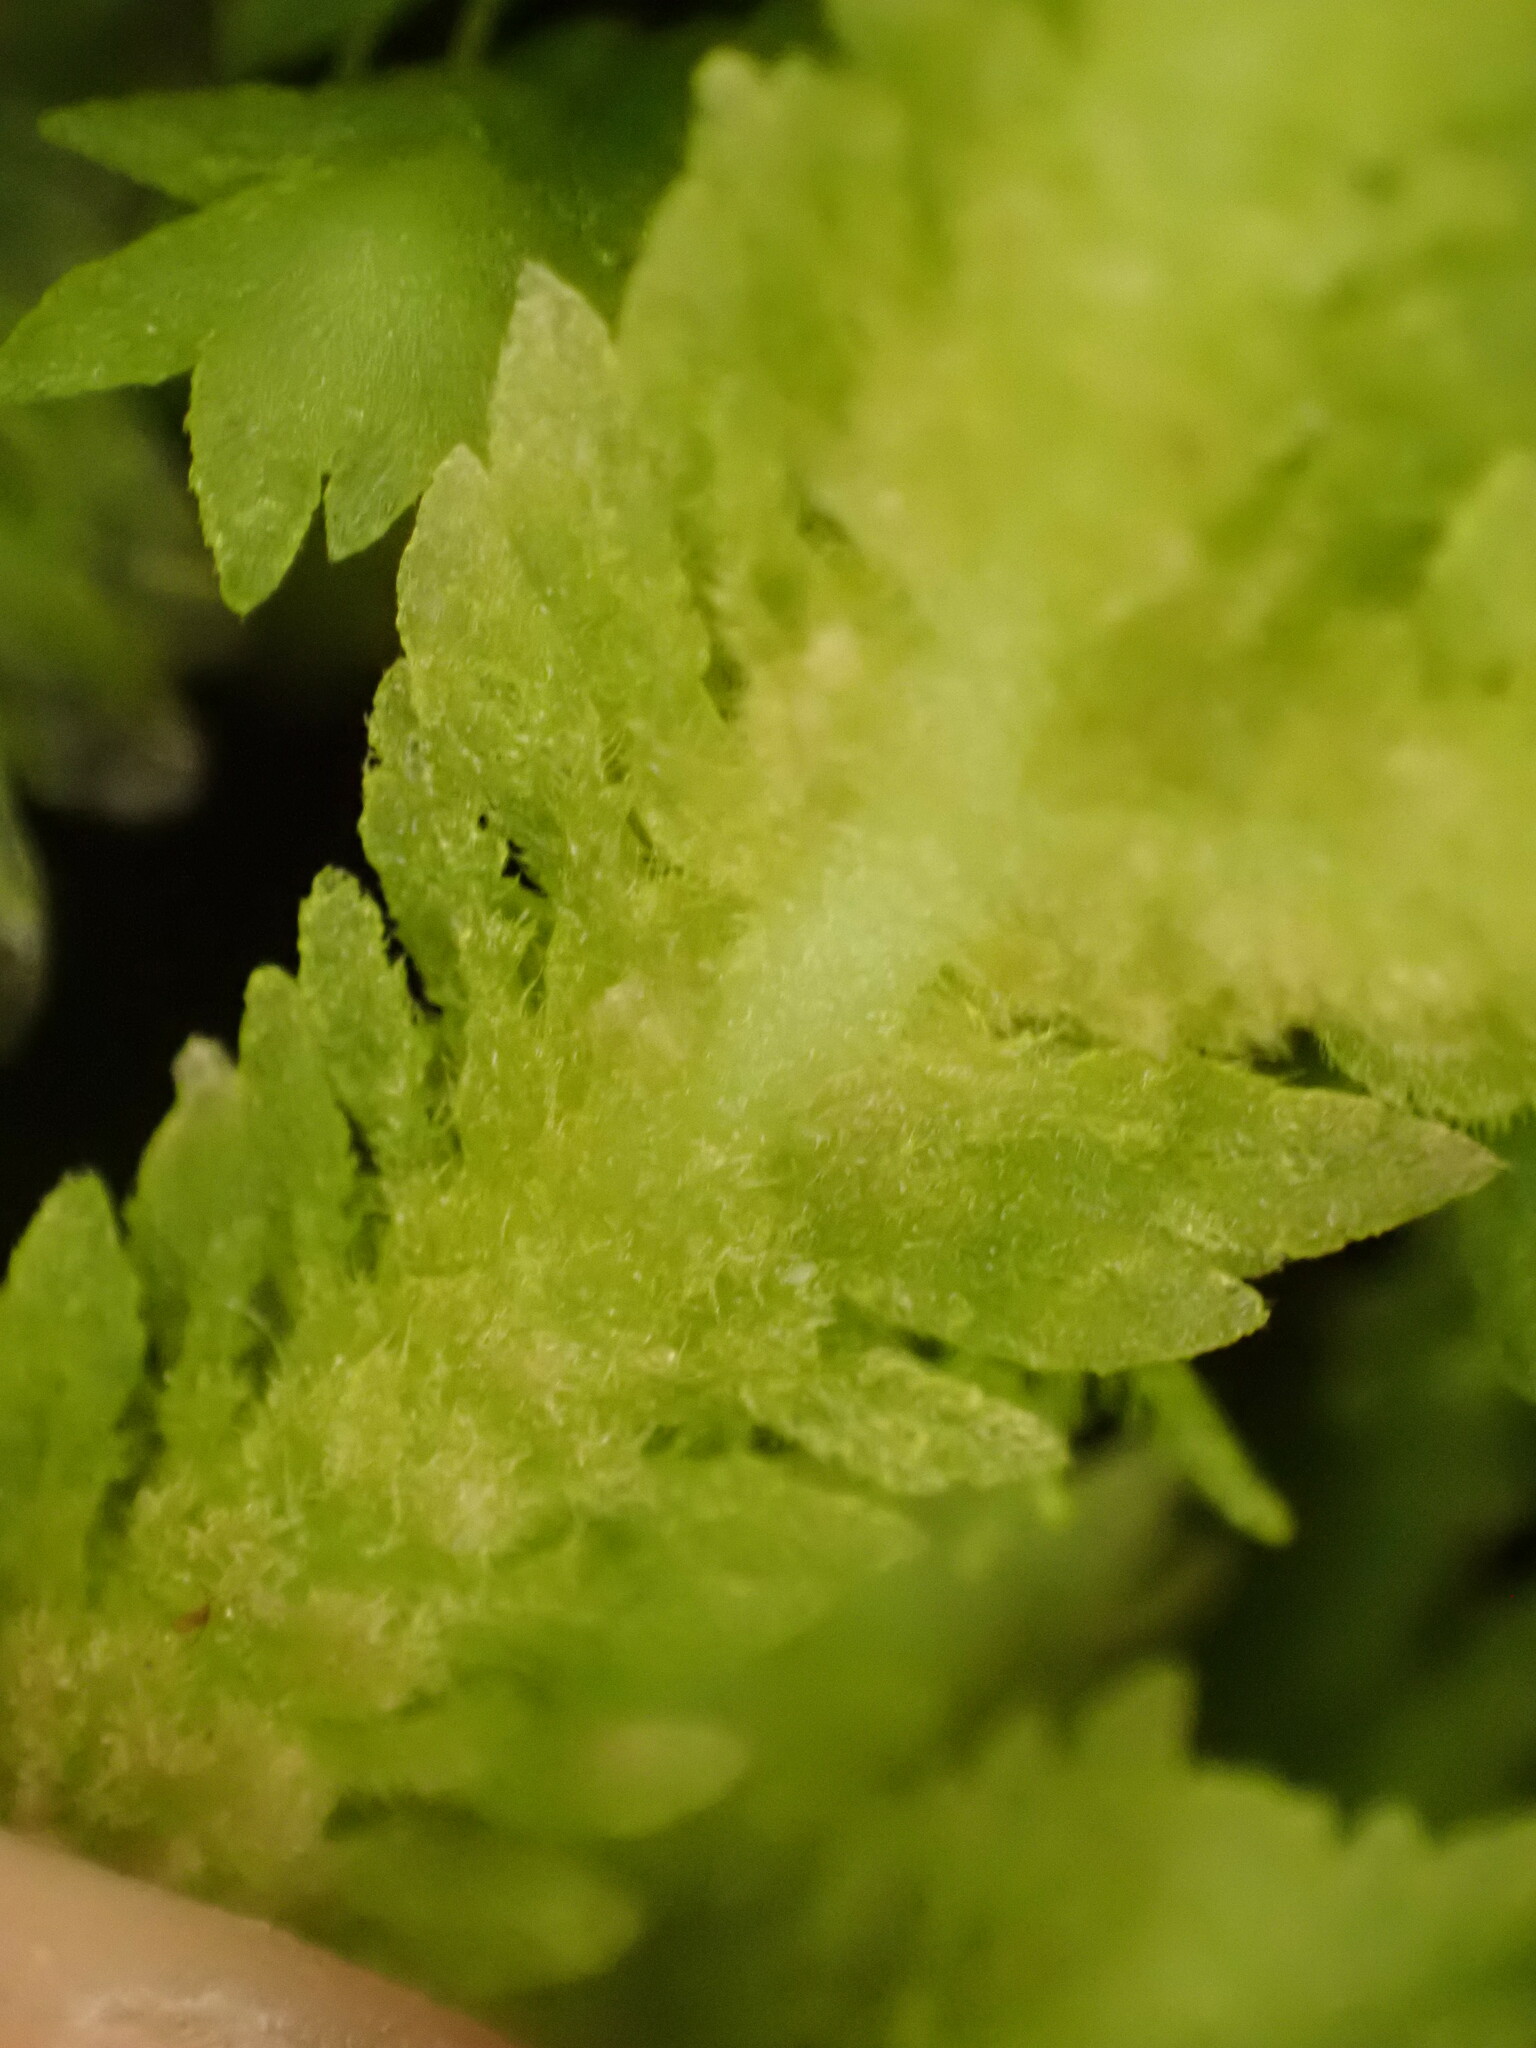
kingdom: Plantae
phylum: Marchantiophyta
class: Jungermanniopsida
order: Jungermanniales
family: Schistochilaceae
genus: Schistochila
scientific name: Schistochila glaucescens
